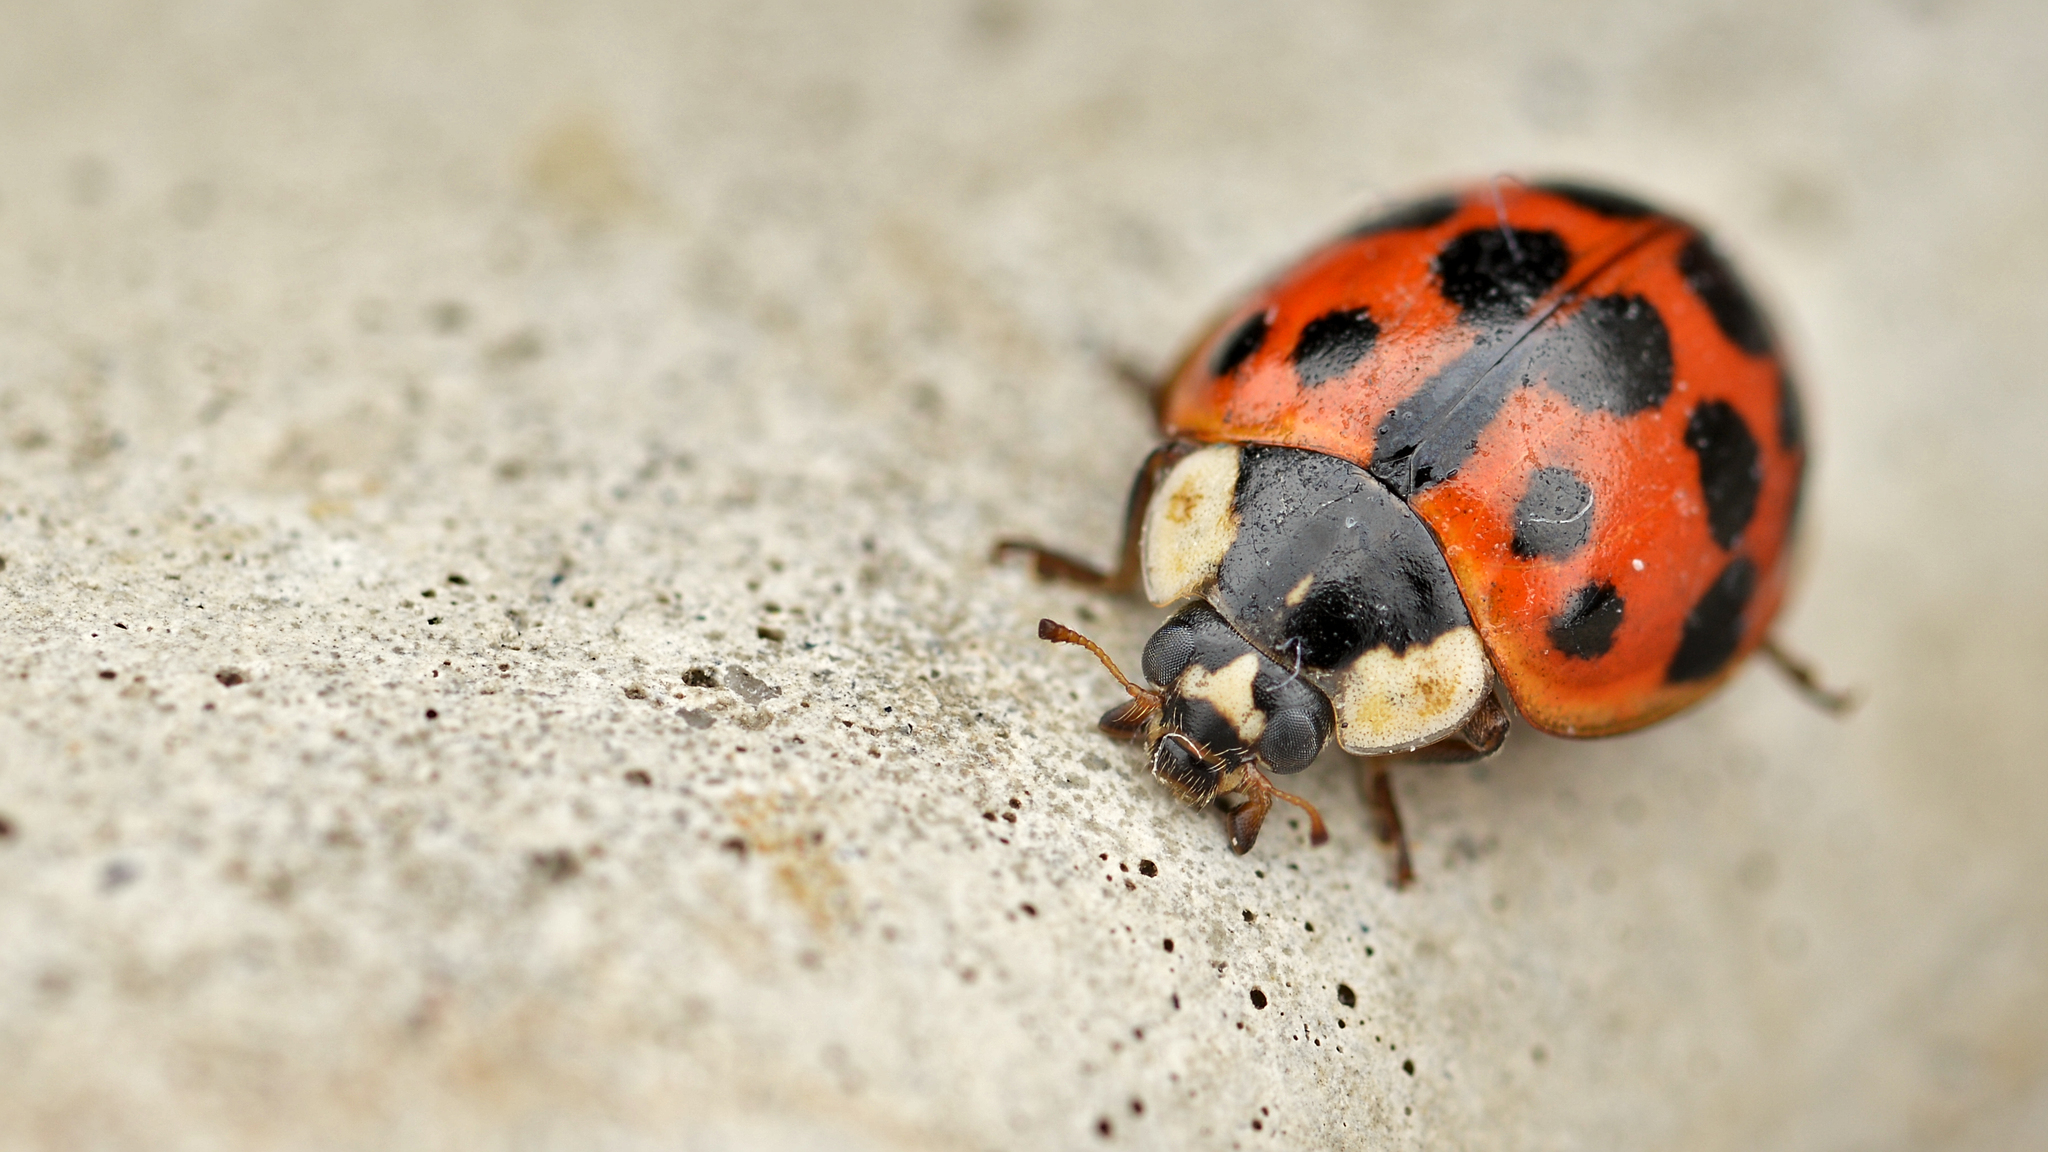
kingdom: Animalia
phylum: Arthropoda
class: Insecta
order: Coleoptera
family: Coccinellidae
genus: Harmonia
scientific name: Harmonia axyridis
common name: Harlequin ladybird
